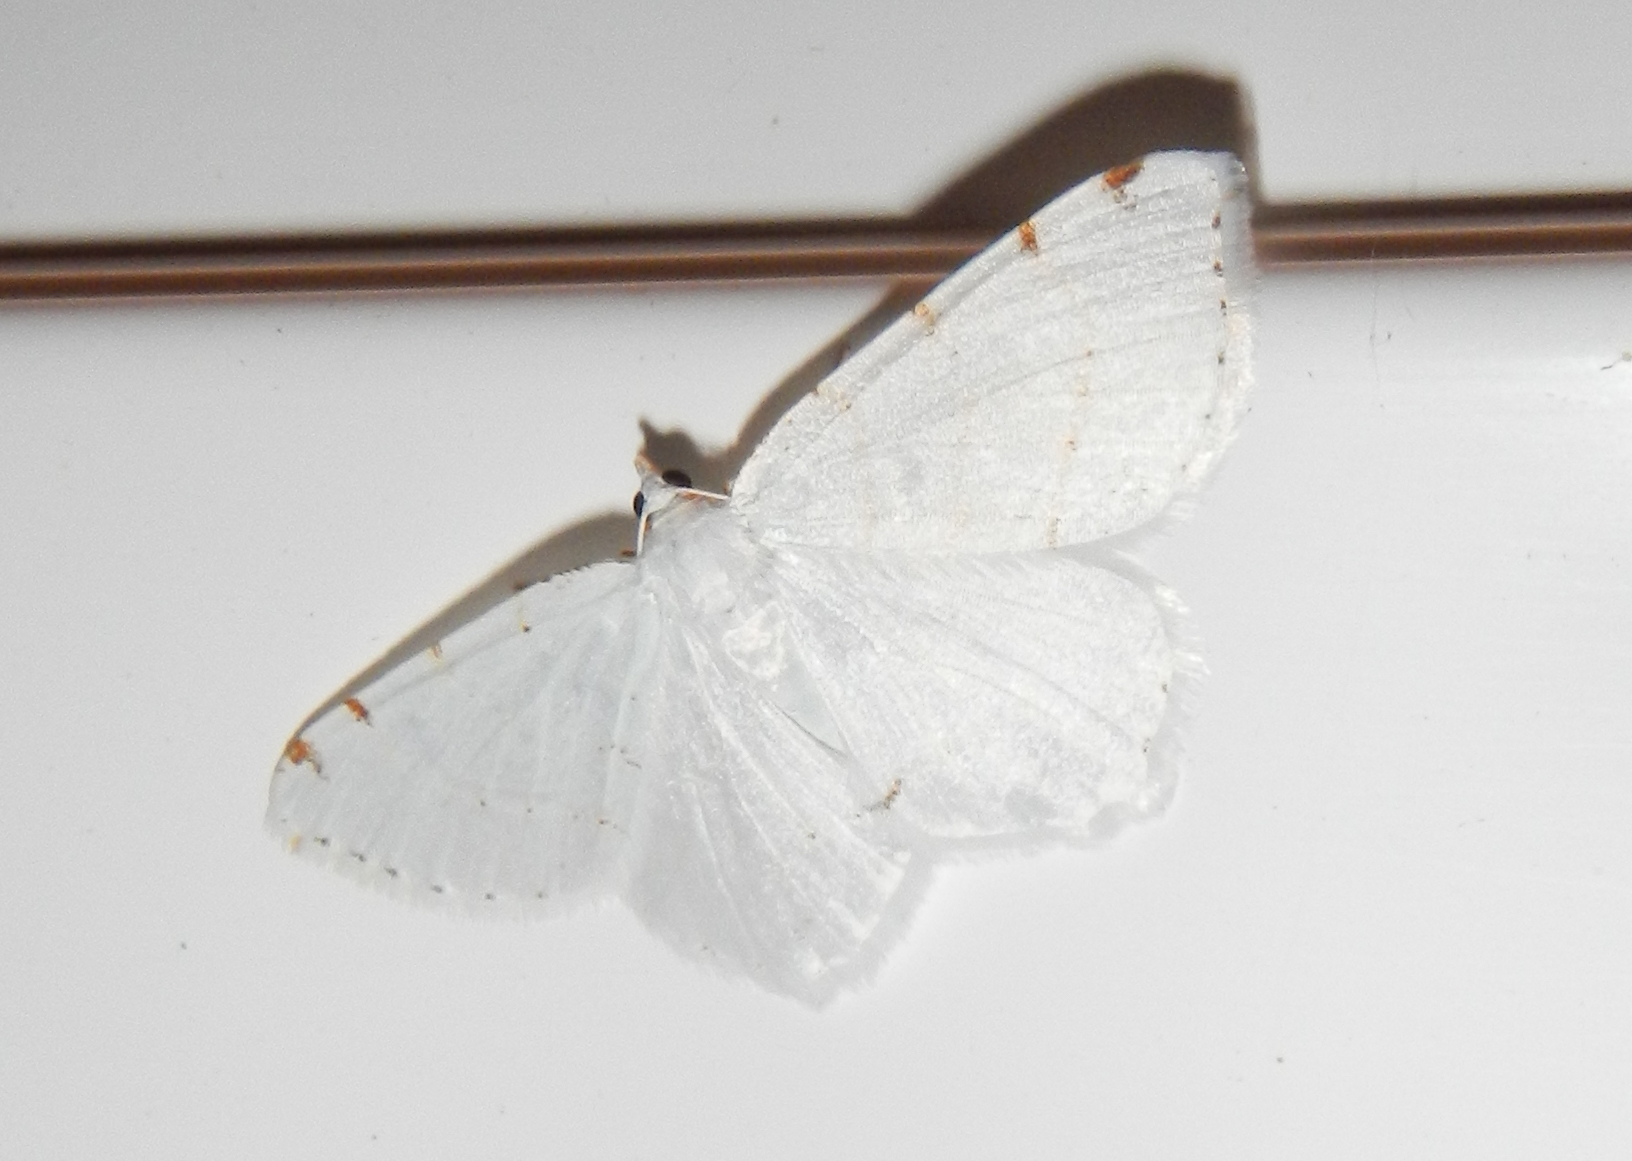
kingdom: Animalia
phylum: Arthropoda
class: Insecta
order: Lepidoptera
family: Geometridae
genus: Macaria
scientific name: Macaria pustularia
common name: Lesser maple spanworm moth
